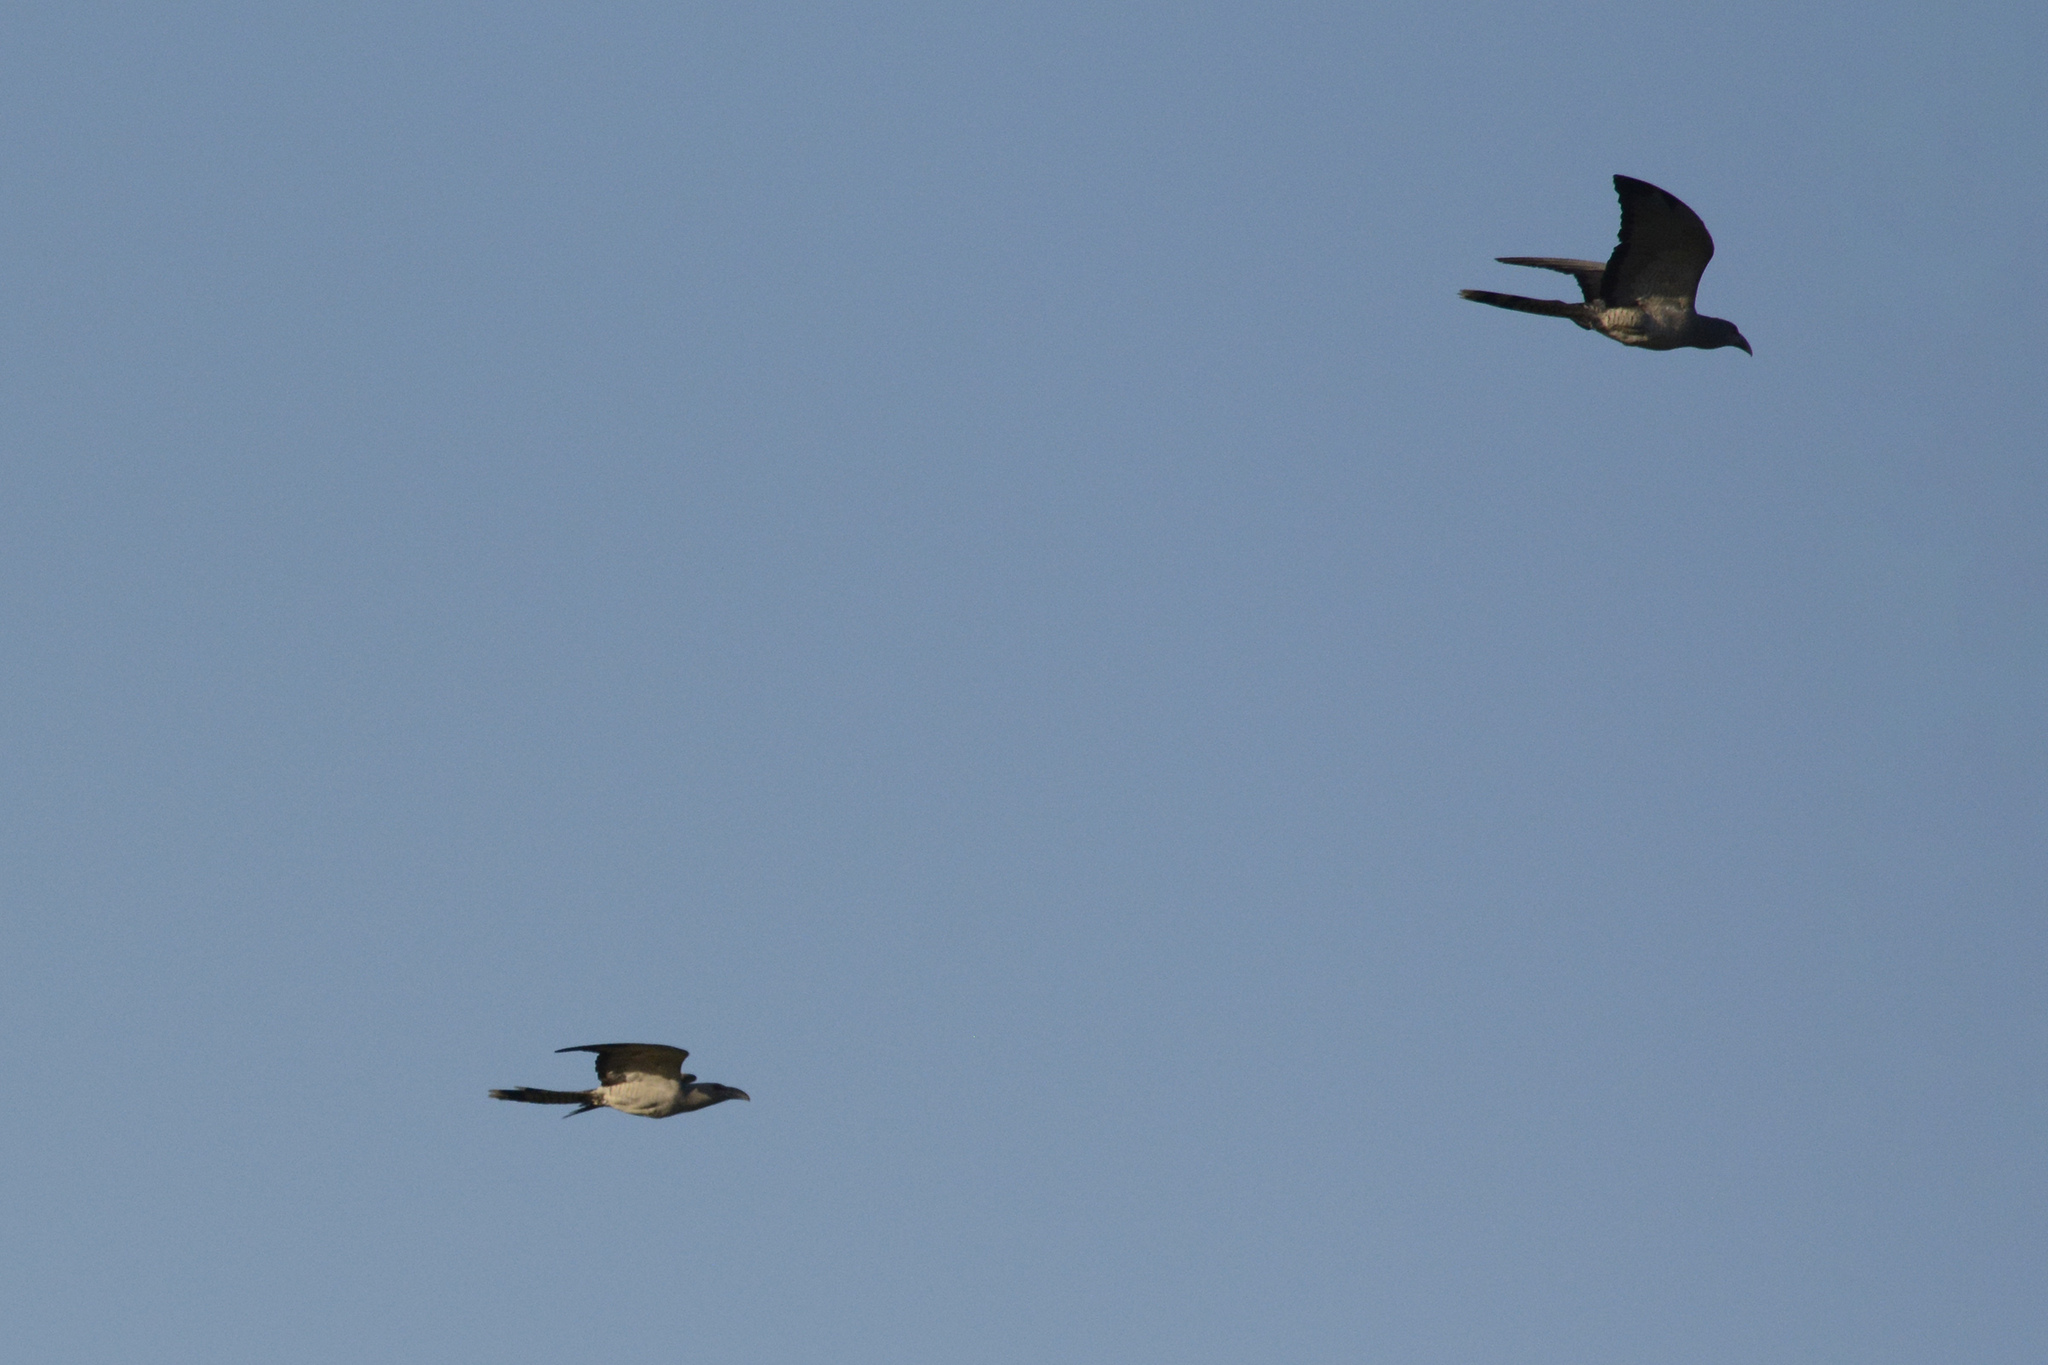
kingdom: Animalia
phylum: Chordata
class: Aves
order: Cuculiformes
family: Cuculidae
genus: Scythrops
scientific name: Scythrops novaehollandiae
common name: Channel-billed cuckoo
